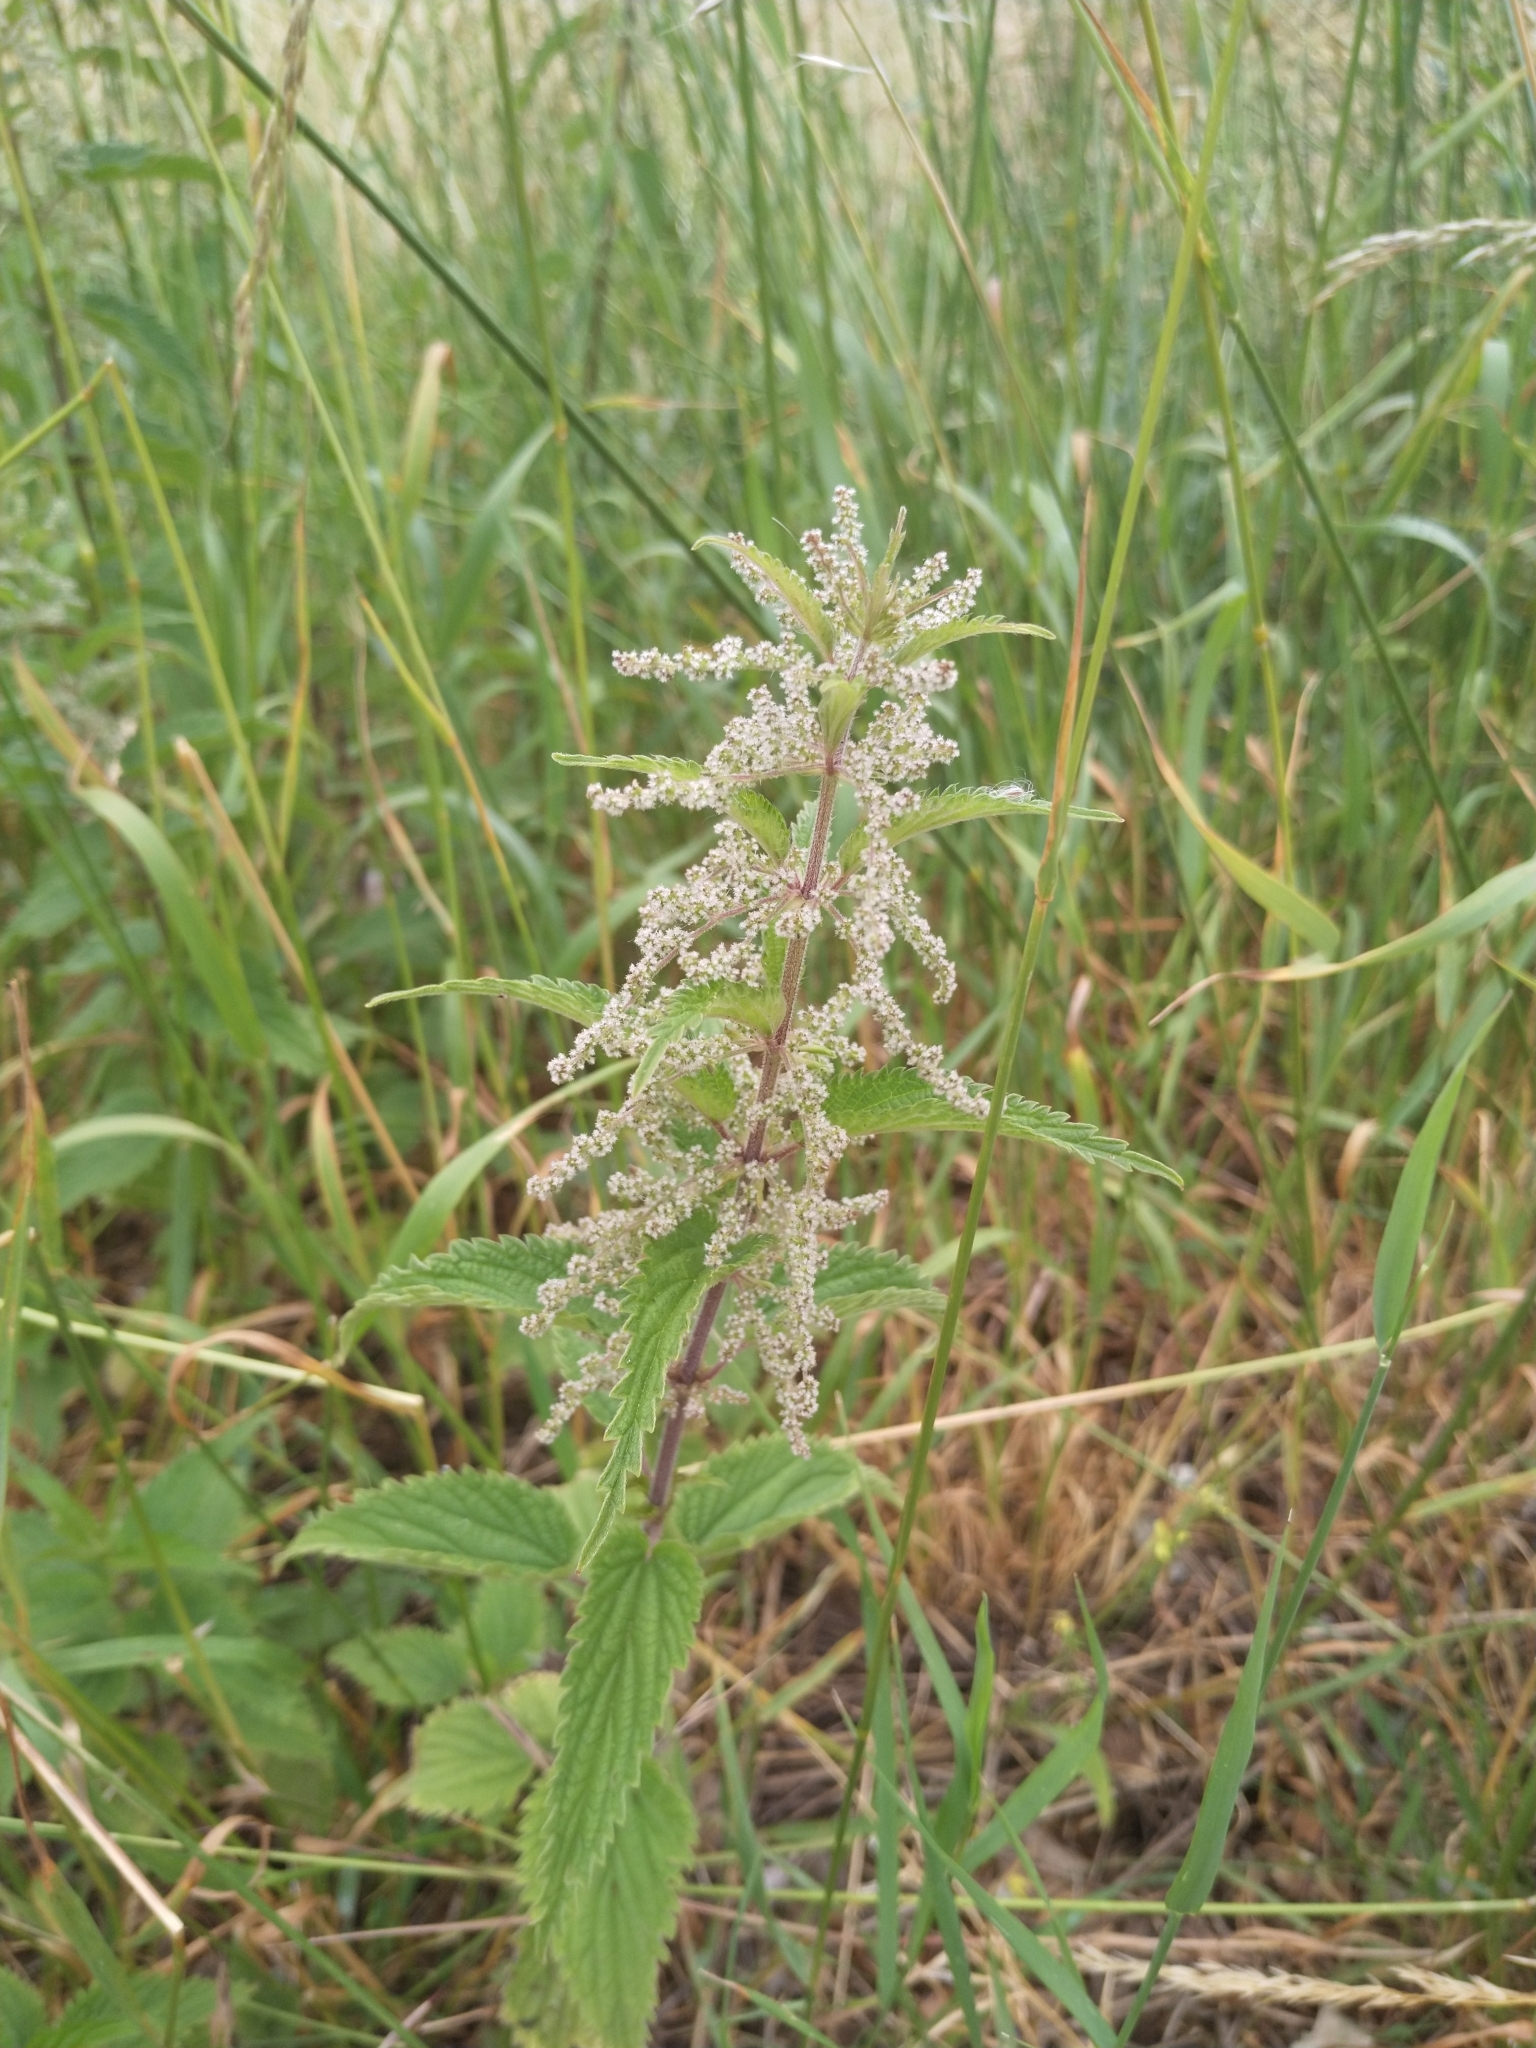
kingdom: Plantae
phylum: Tracheophyta
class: Magnoliopsida
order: Rosales
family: Urticaceae
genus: Urtica
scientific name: Urtica dioica
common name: Common nettle
